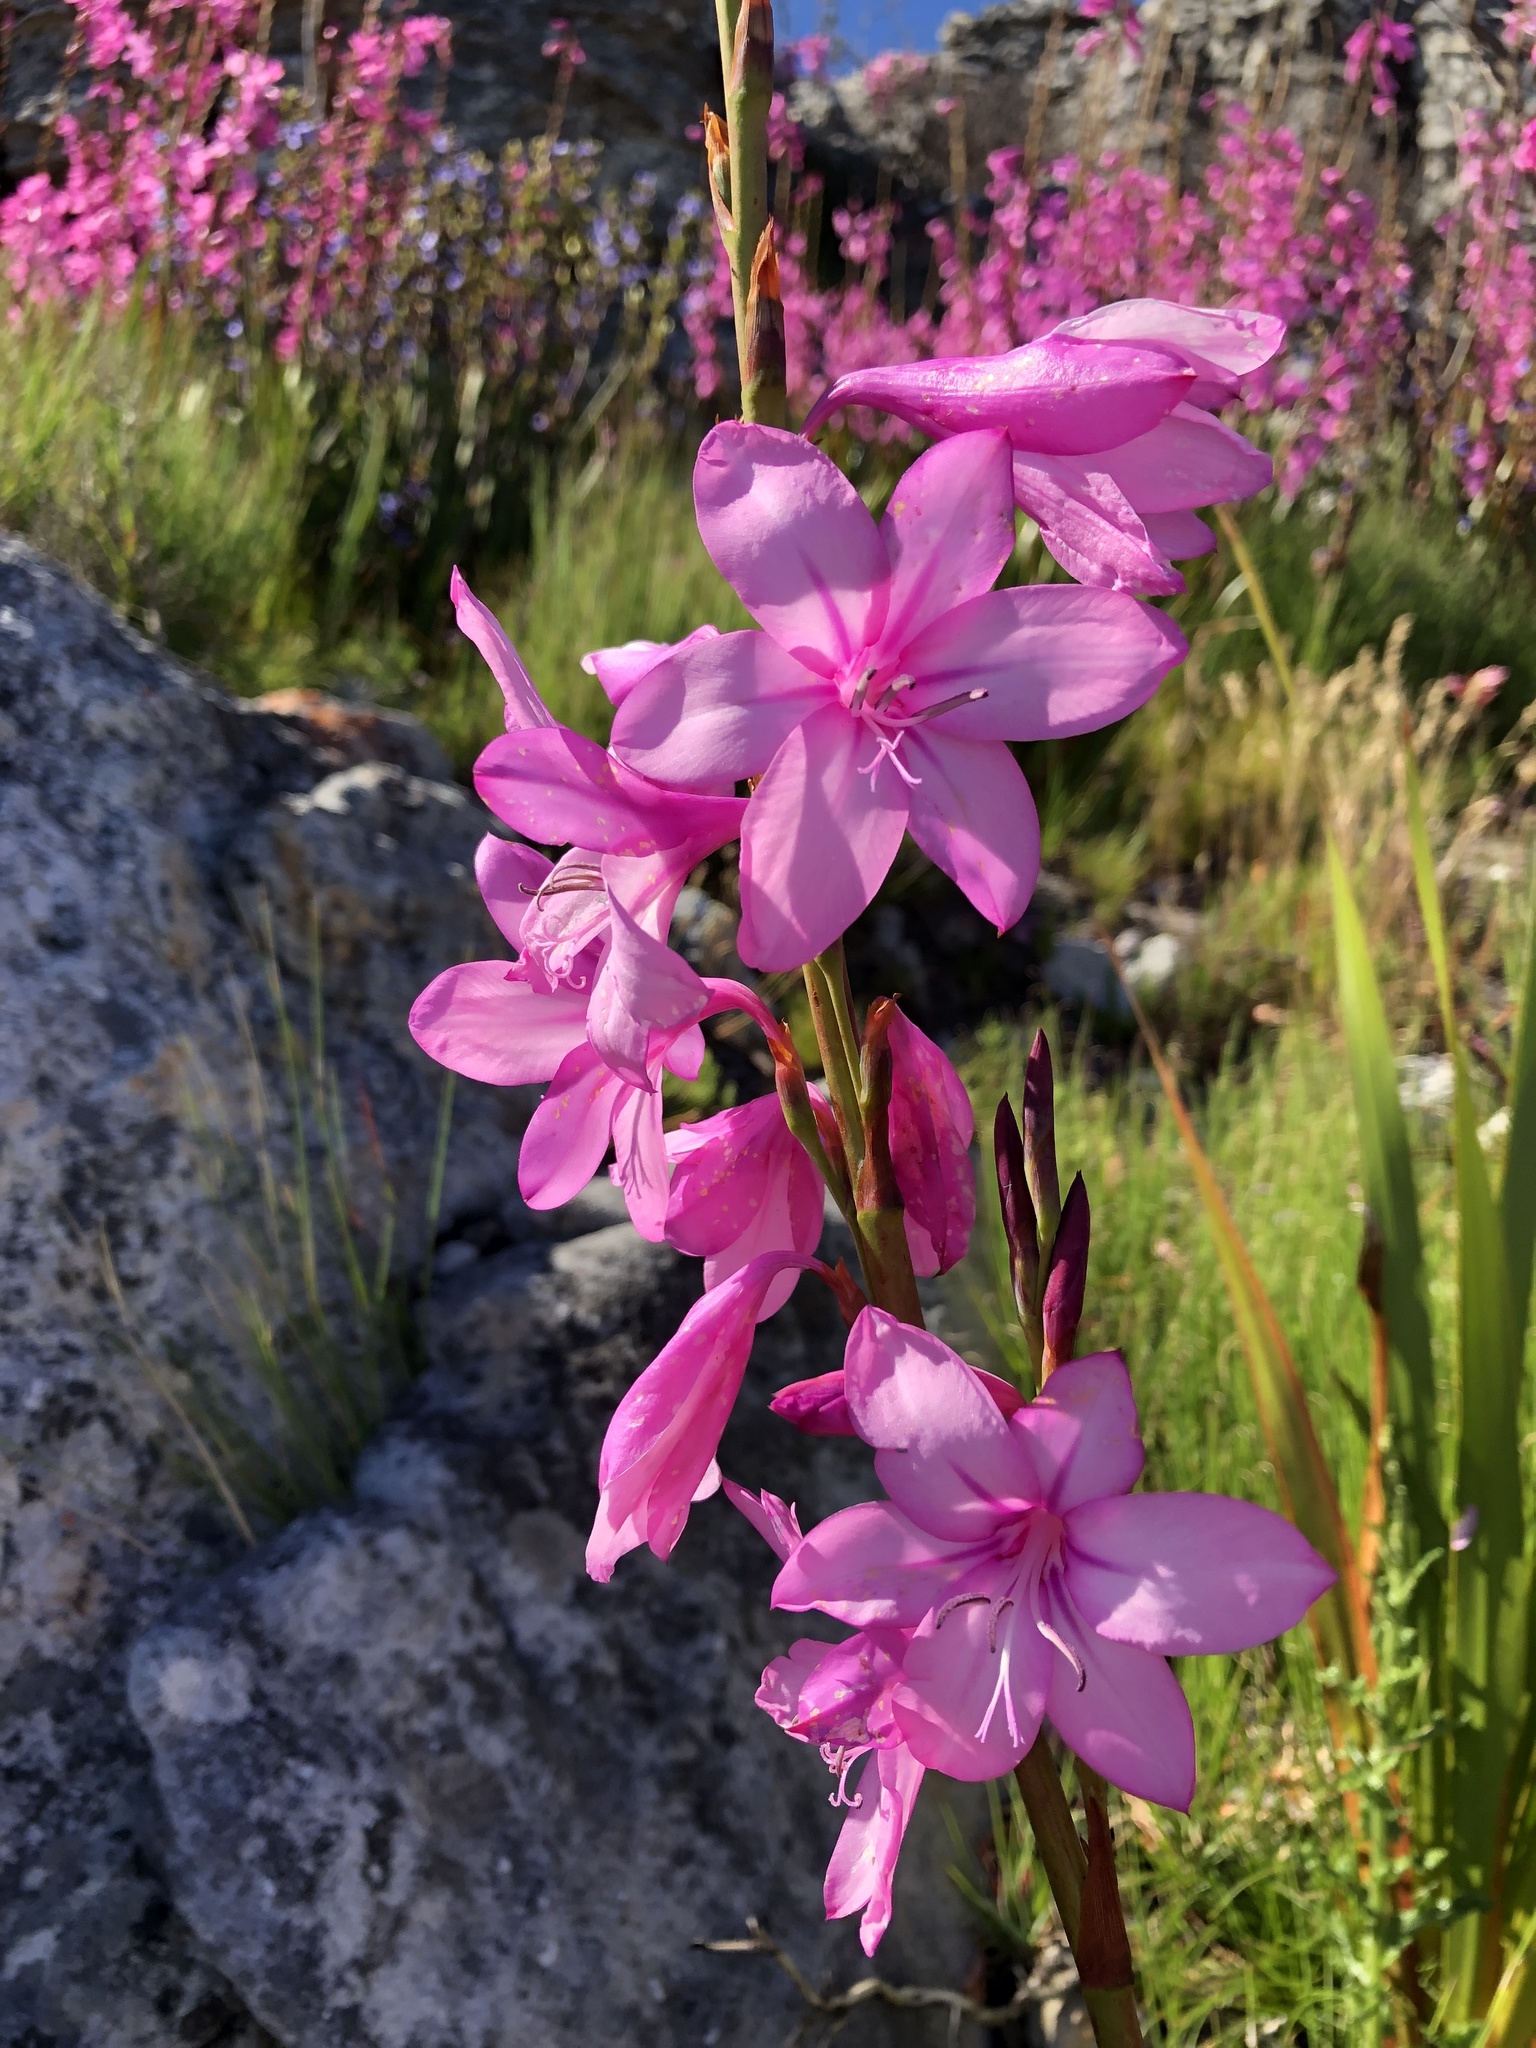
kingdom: Plantae
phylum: Tracheophyta
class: Liliopsida
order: Asparagales
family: Iridaceae
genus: Watsonia
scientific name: Watsonia borbonica
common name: Bugle-lily
